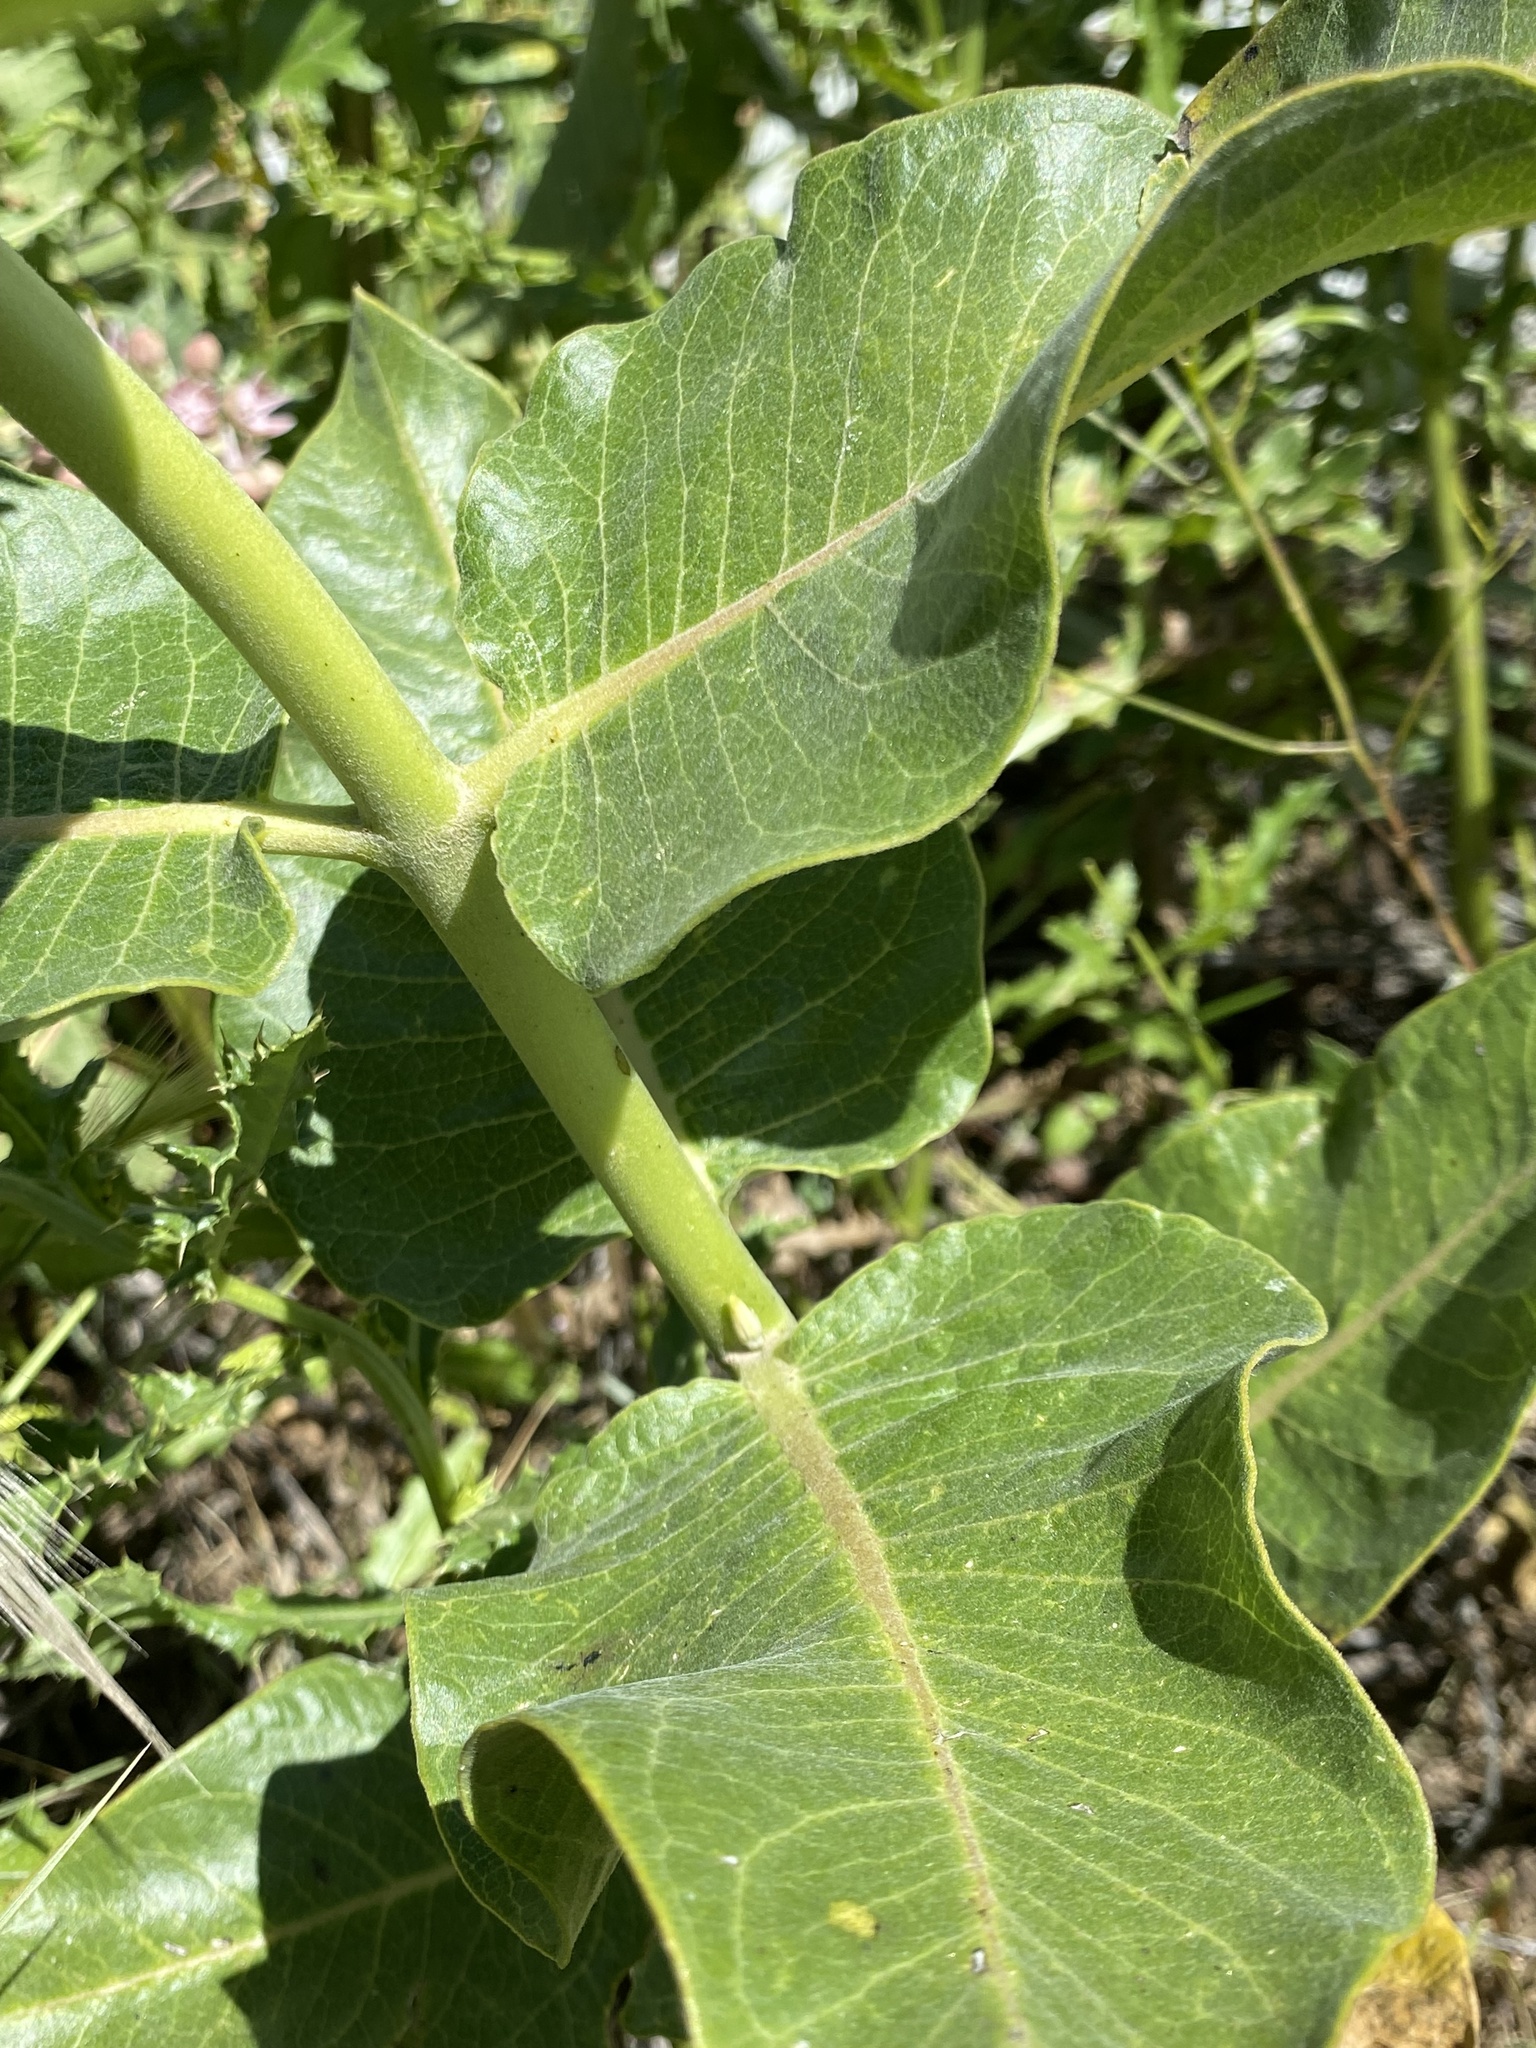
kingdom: Plantae
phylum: Tracheophyta
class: Magnoliopsida
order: Gentianales
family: Apocynaceae
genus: Asclepias
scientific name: Asclepias speciosa
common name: Showy milkweed
